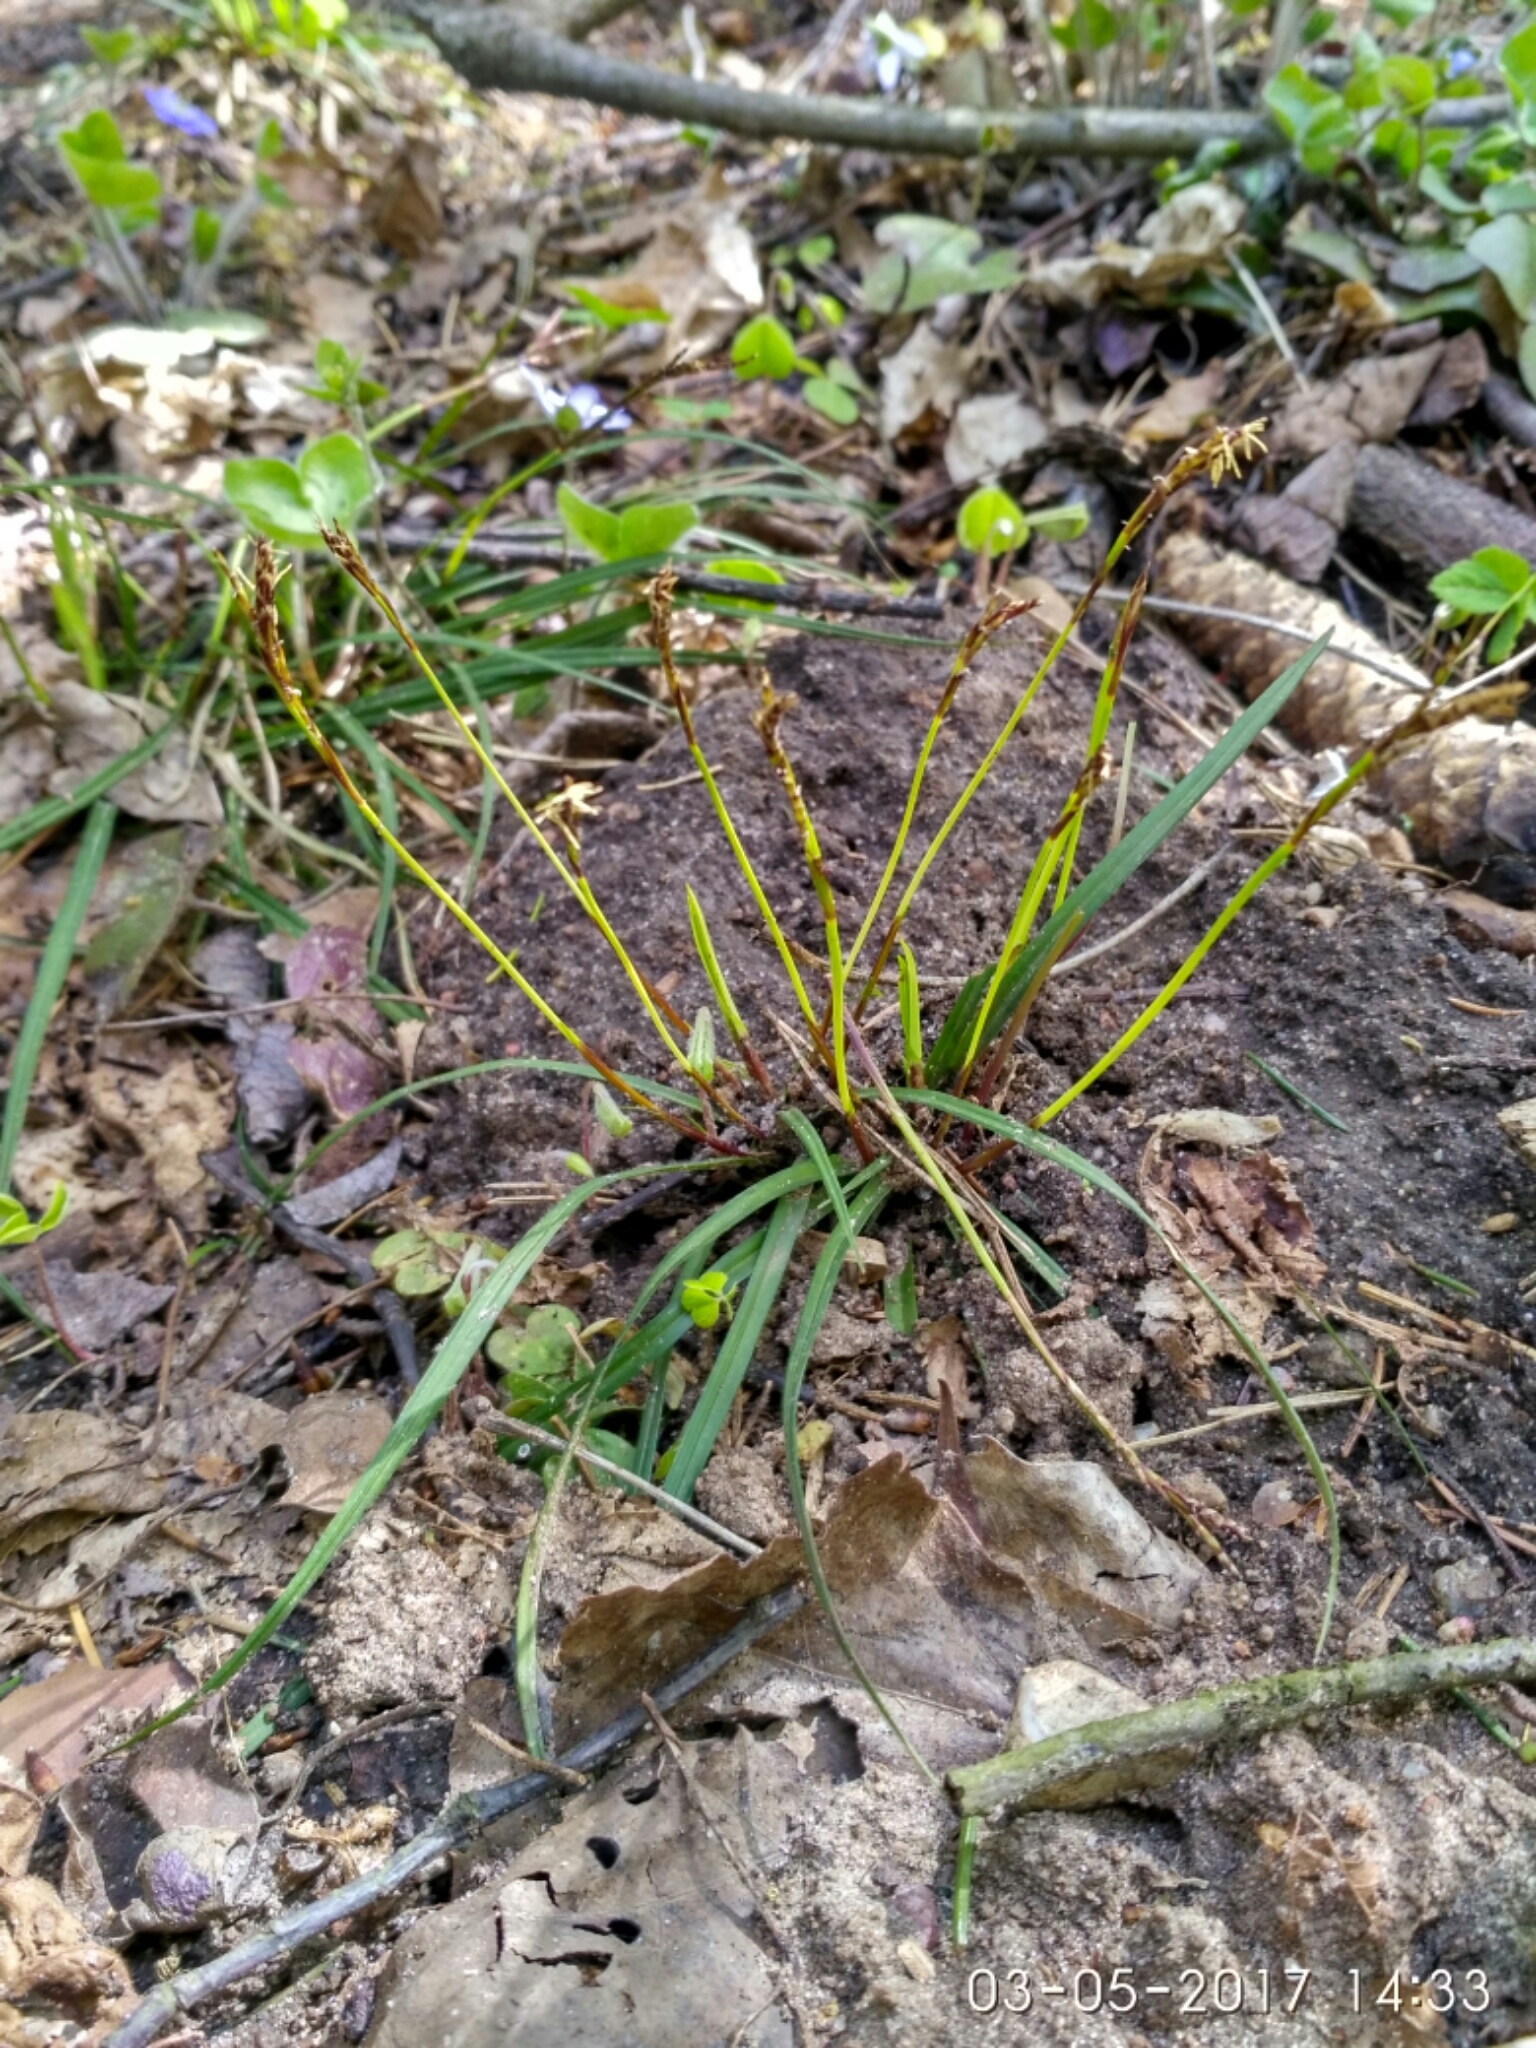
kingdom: Plantae
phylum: Tracheophyta
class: Liliopsida
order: Poales
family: Cyperaceae
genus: Carex
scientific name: Carex digitata
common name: Fingered sedge
